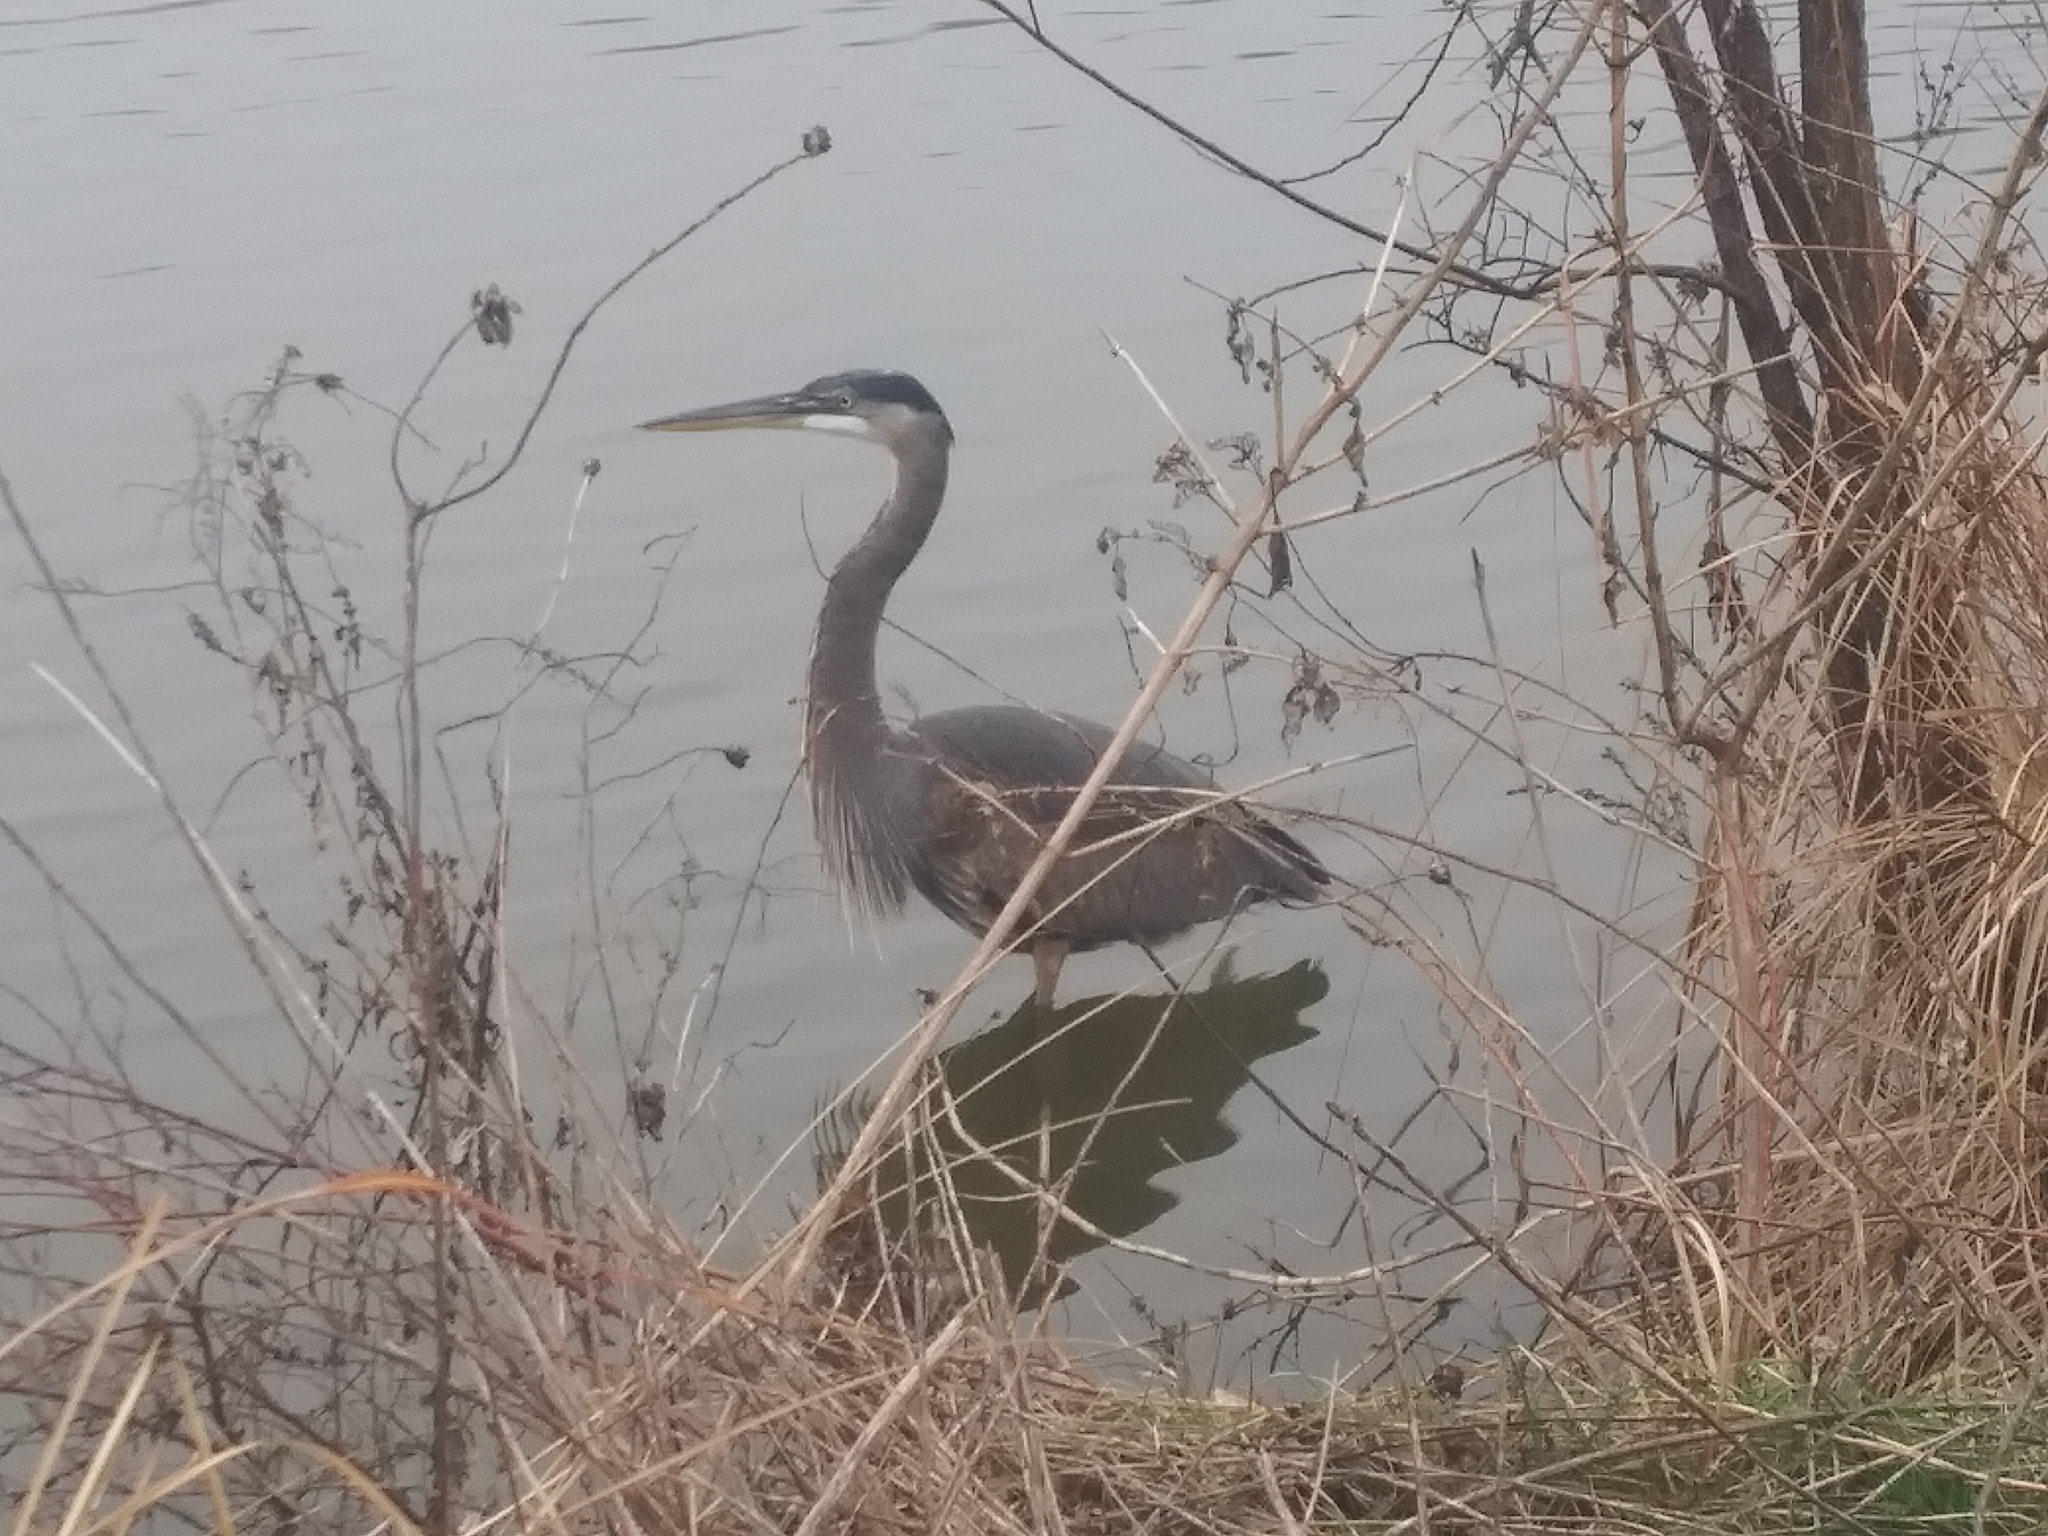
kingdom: Animalia
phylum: Chordata
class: Aves
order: Pelecaniformes
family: Ardeidae
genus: Ardea
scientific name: Ardea herodias
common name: Great blue heron
